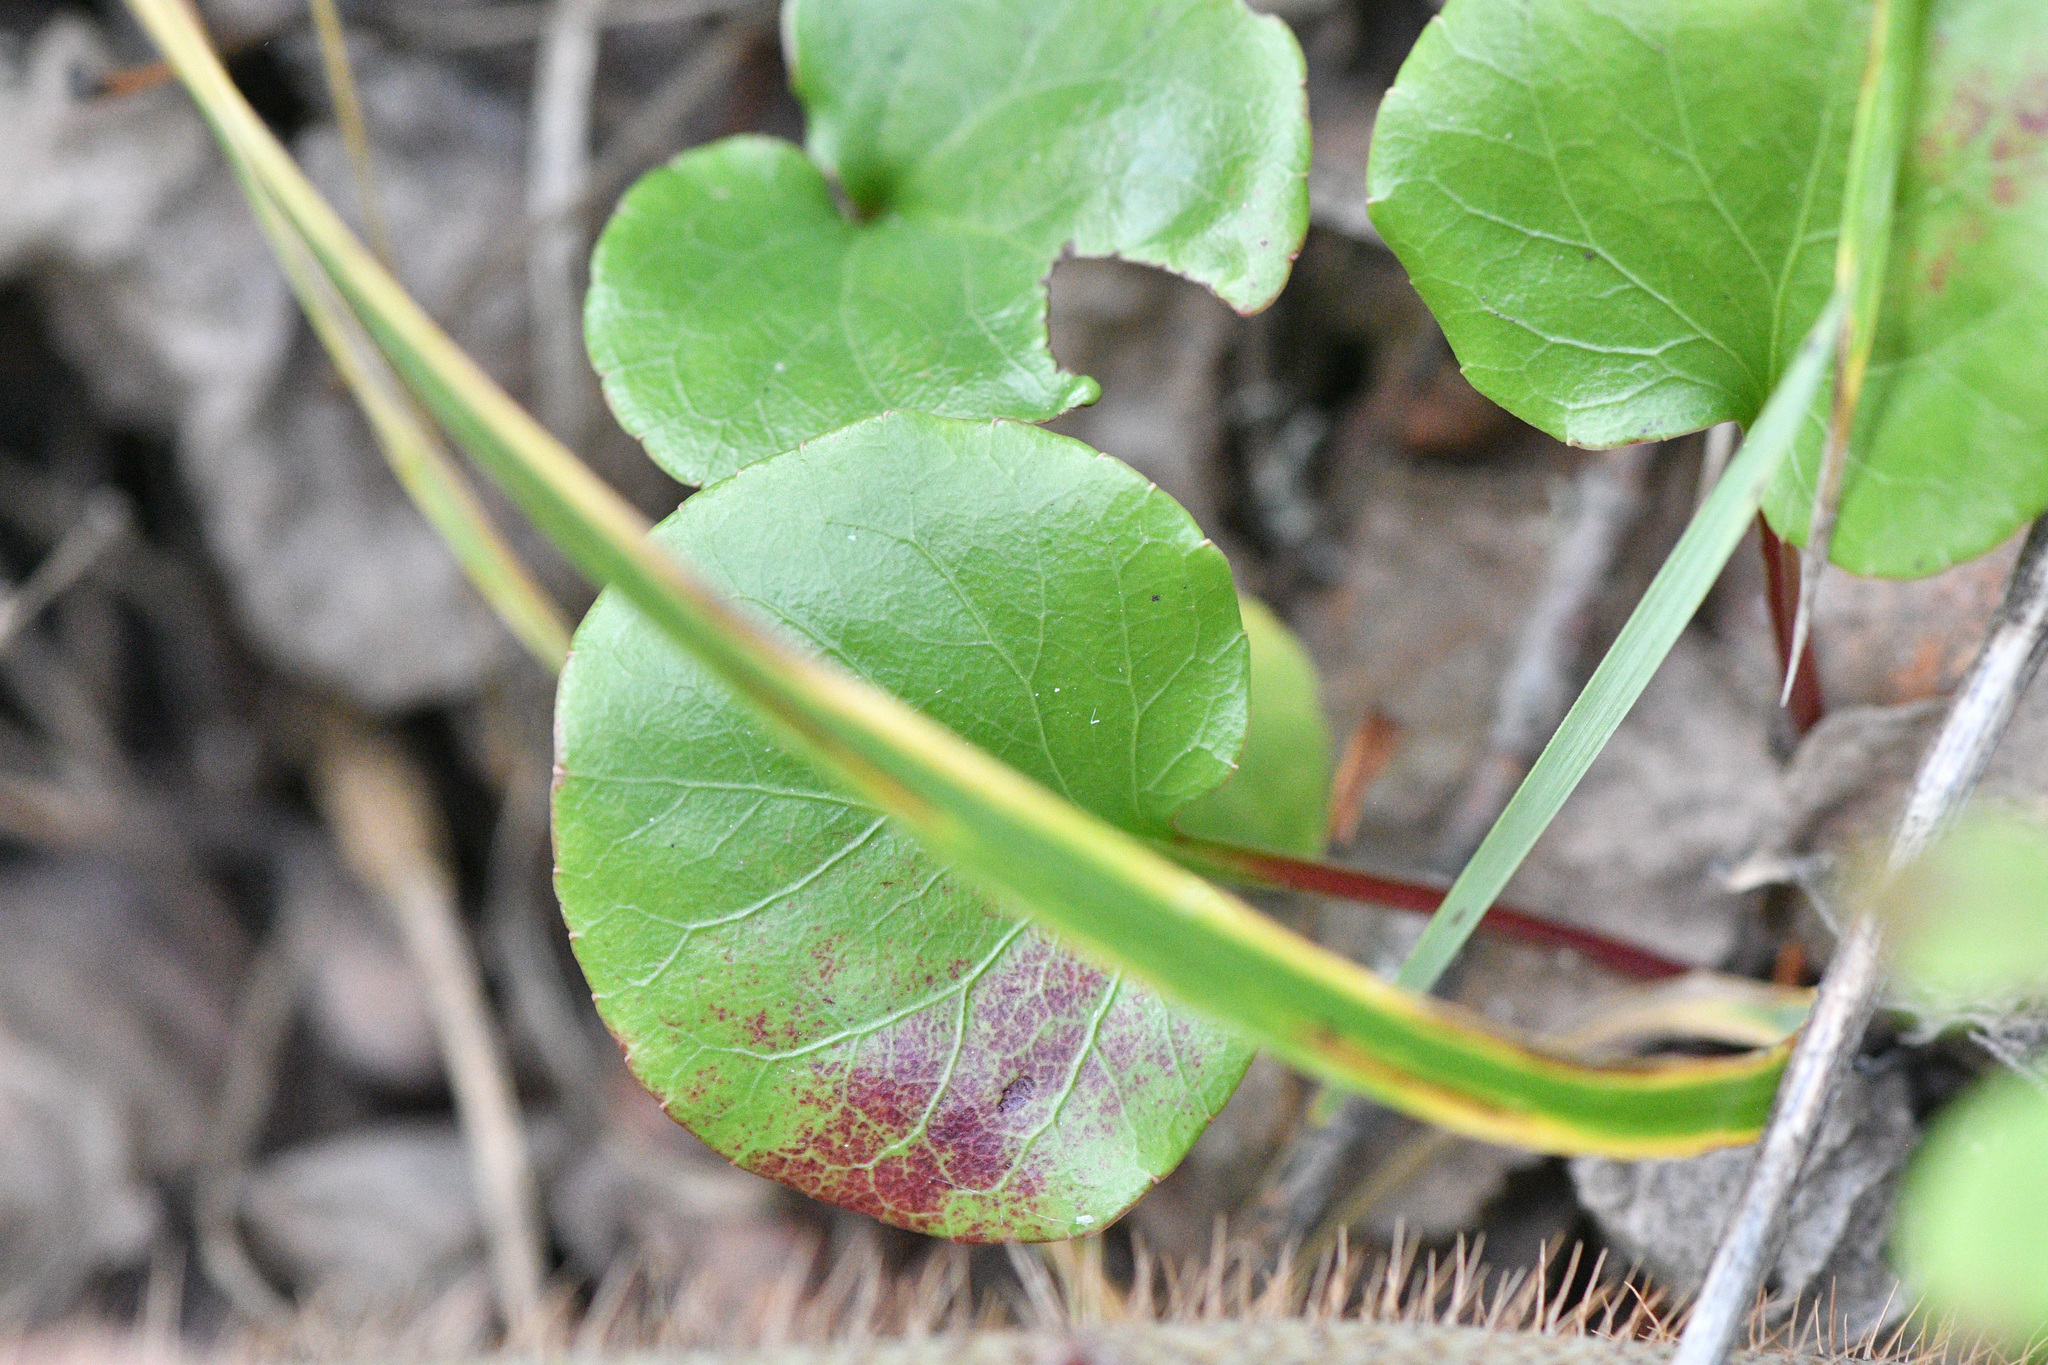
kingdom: Plantae
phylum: Tracheophyta
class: Magnoliopsida
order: Ericales
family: Ericaceae
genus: Pyrola
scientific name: Pyrola asarifolia
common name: Bog wintergreen
